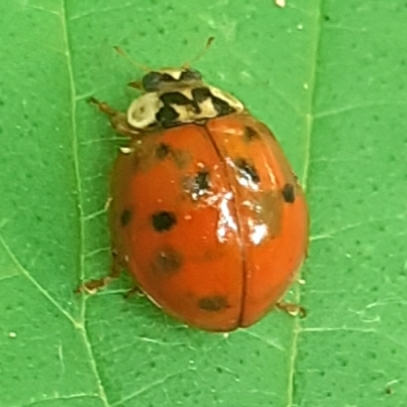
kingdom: Animalia
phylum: Arthropoda
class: Insecta
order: Coleoptera
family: Coccinellidae
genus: Harmonia
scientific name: Harmonia axyridis
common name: Harlequin ladybird
